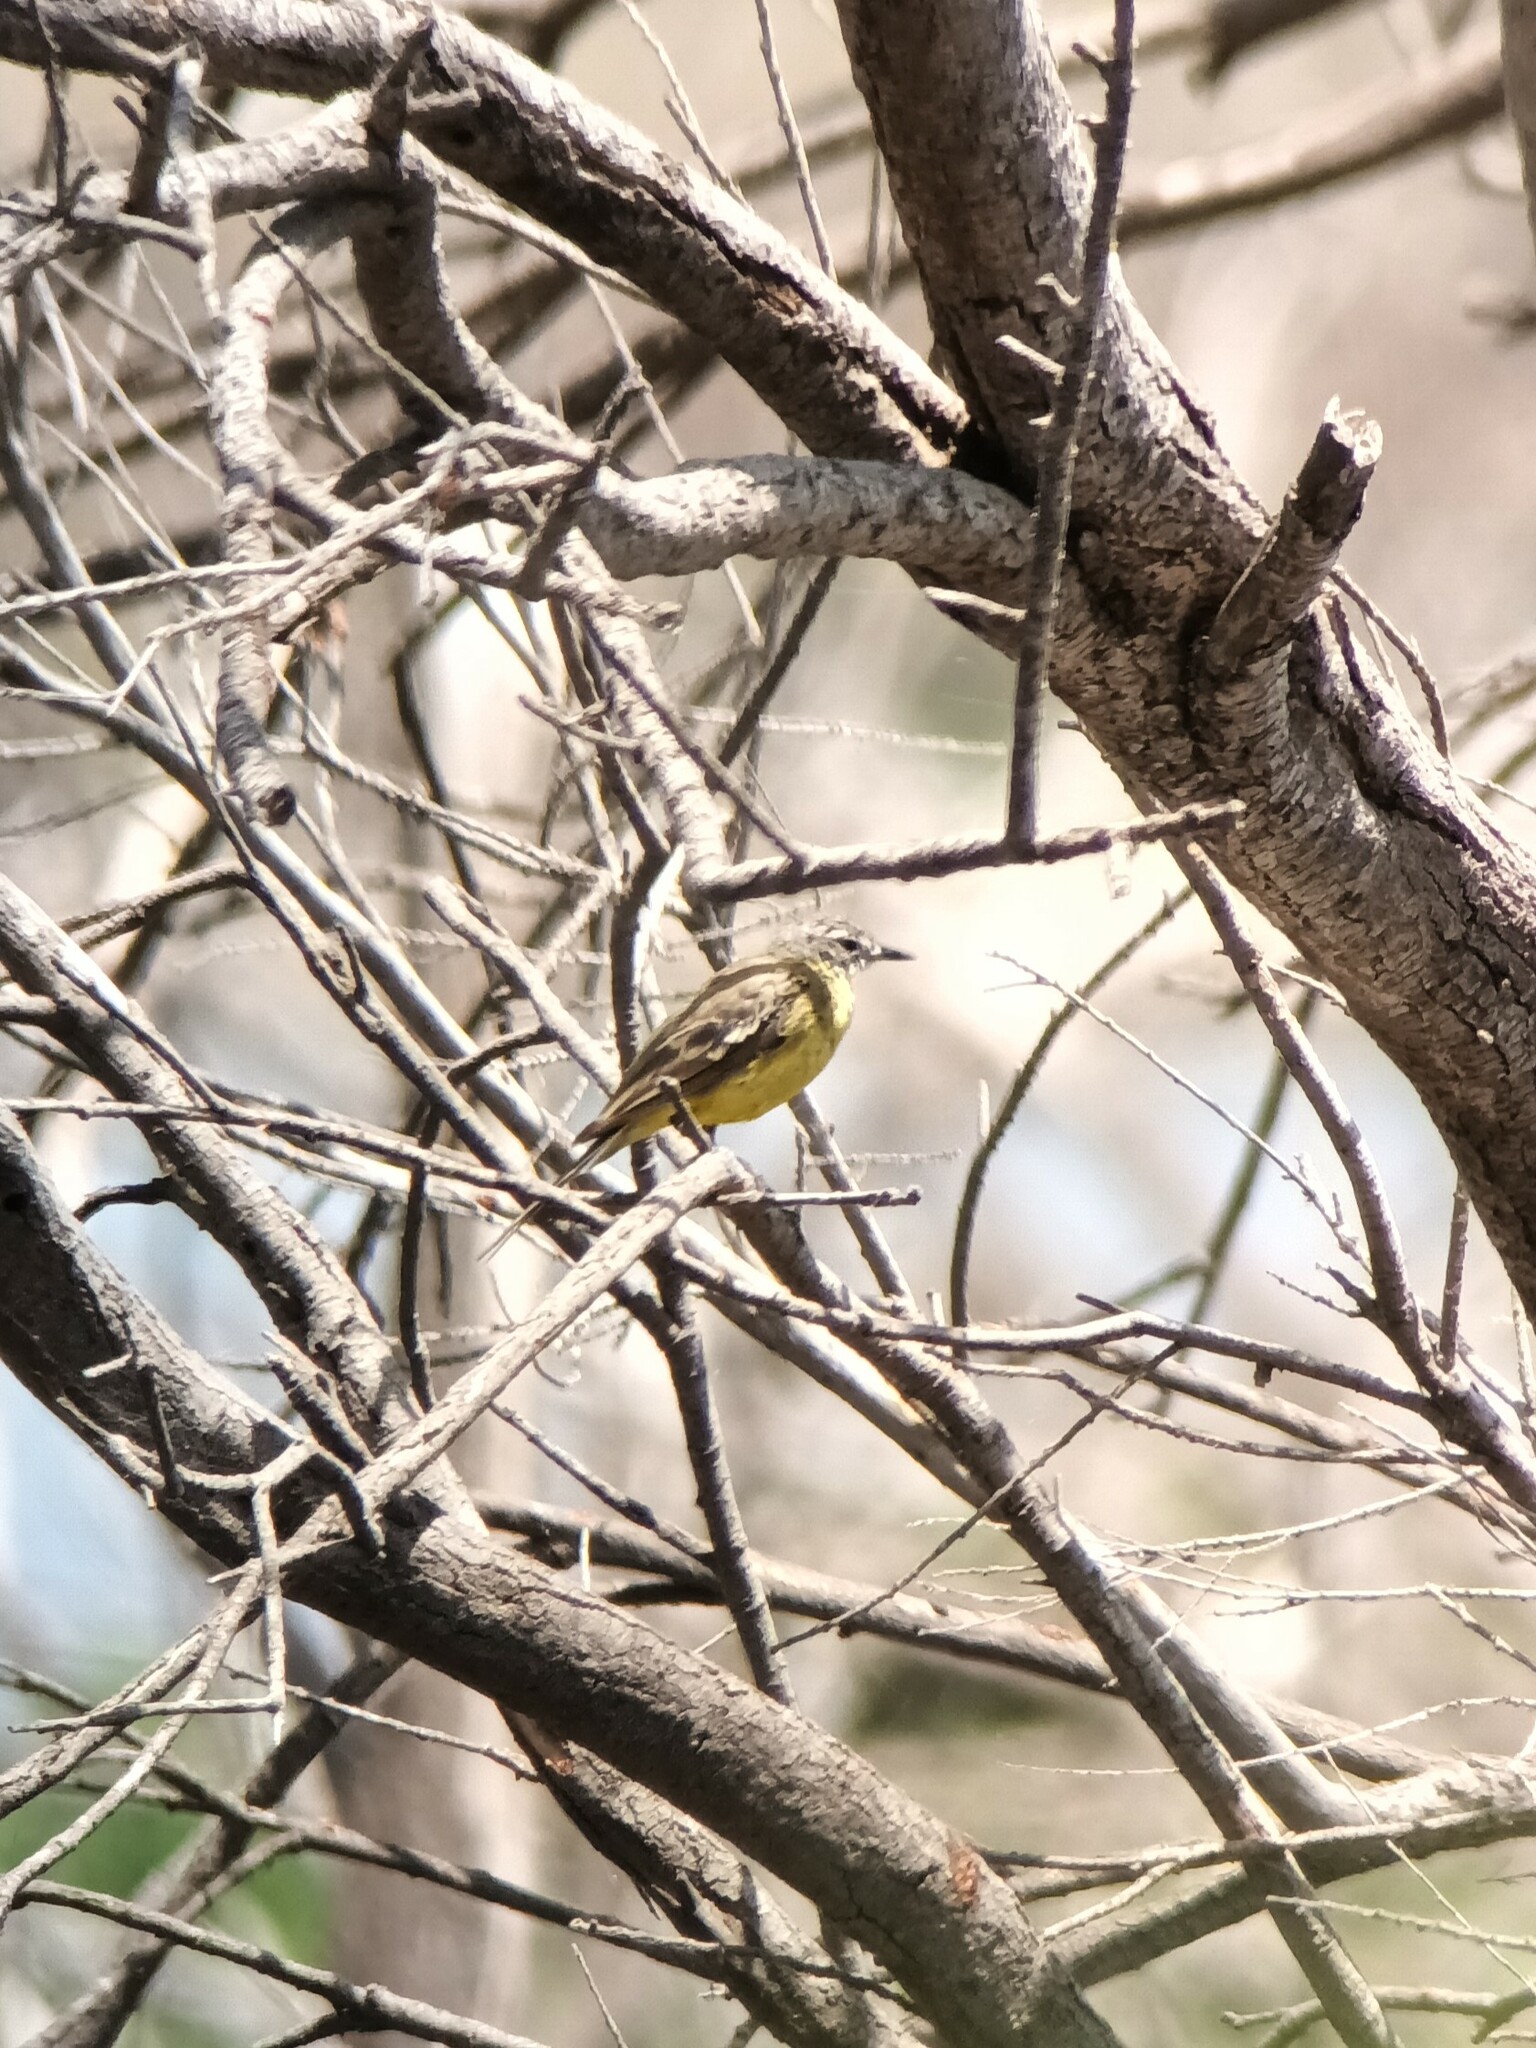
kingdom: Animalia
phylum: Chordata
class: Aves
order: Passeriformes
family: Motacillidae
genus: Motacilla
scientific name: Motacilla flava
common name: Western yellow wagtail
